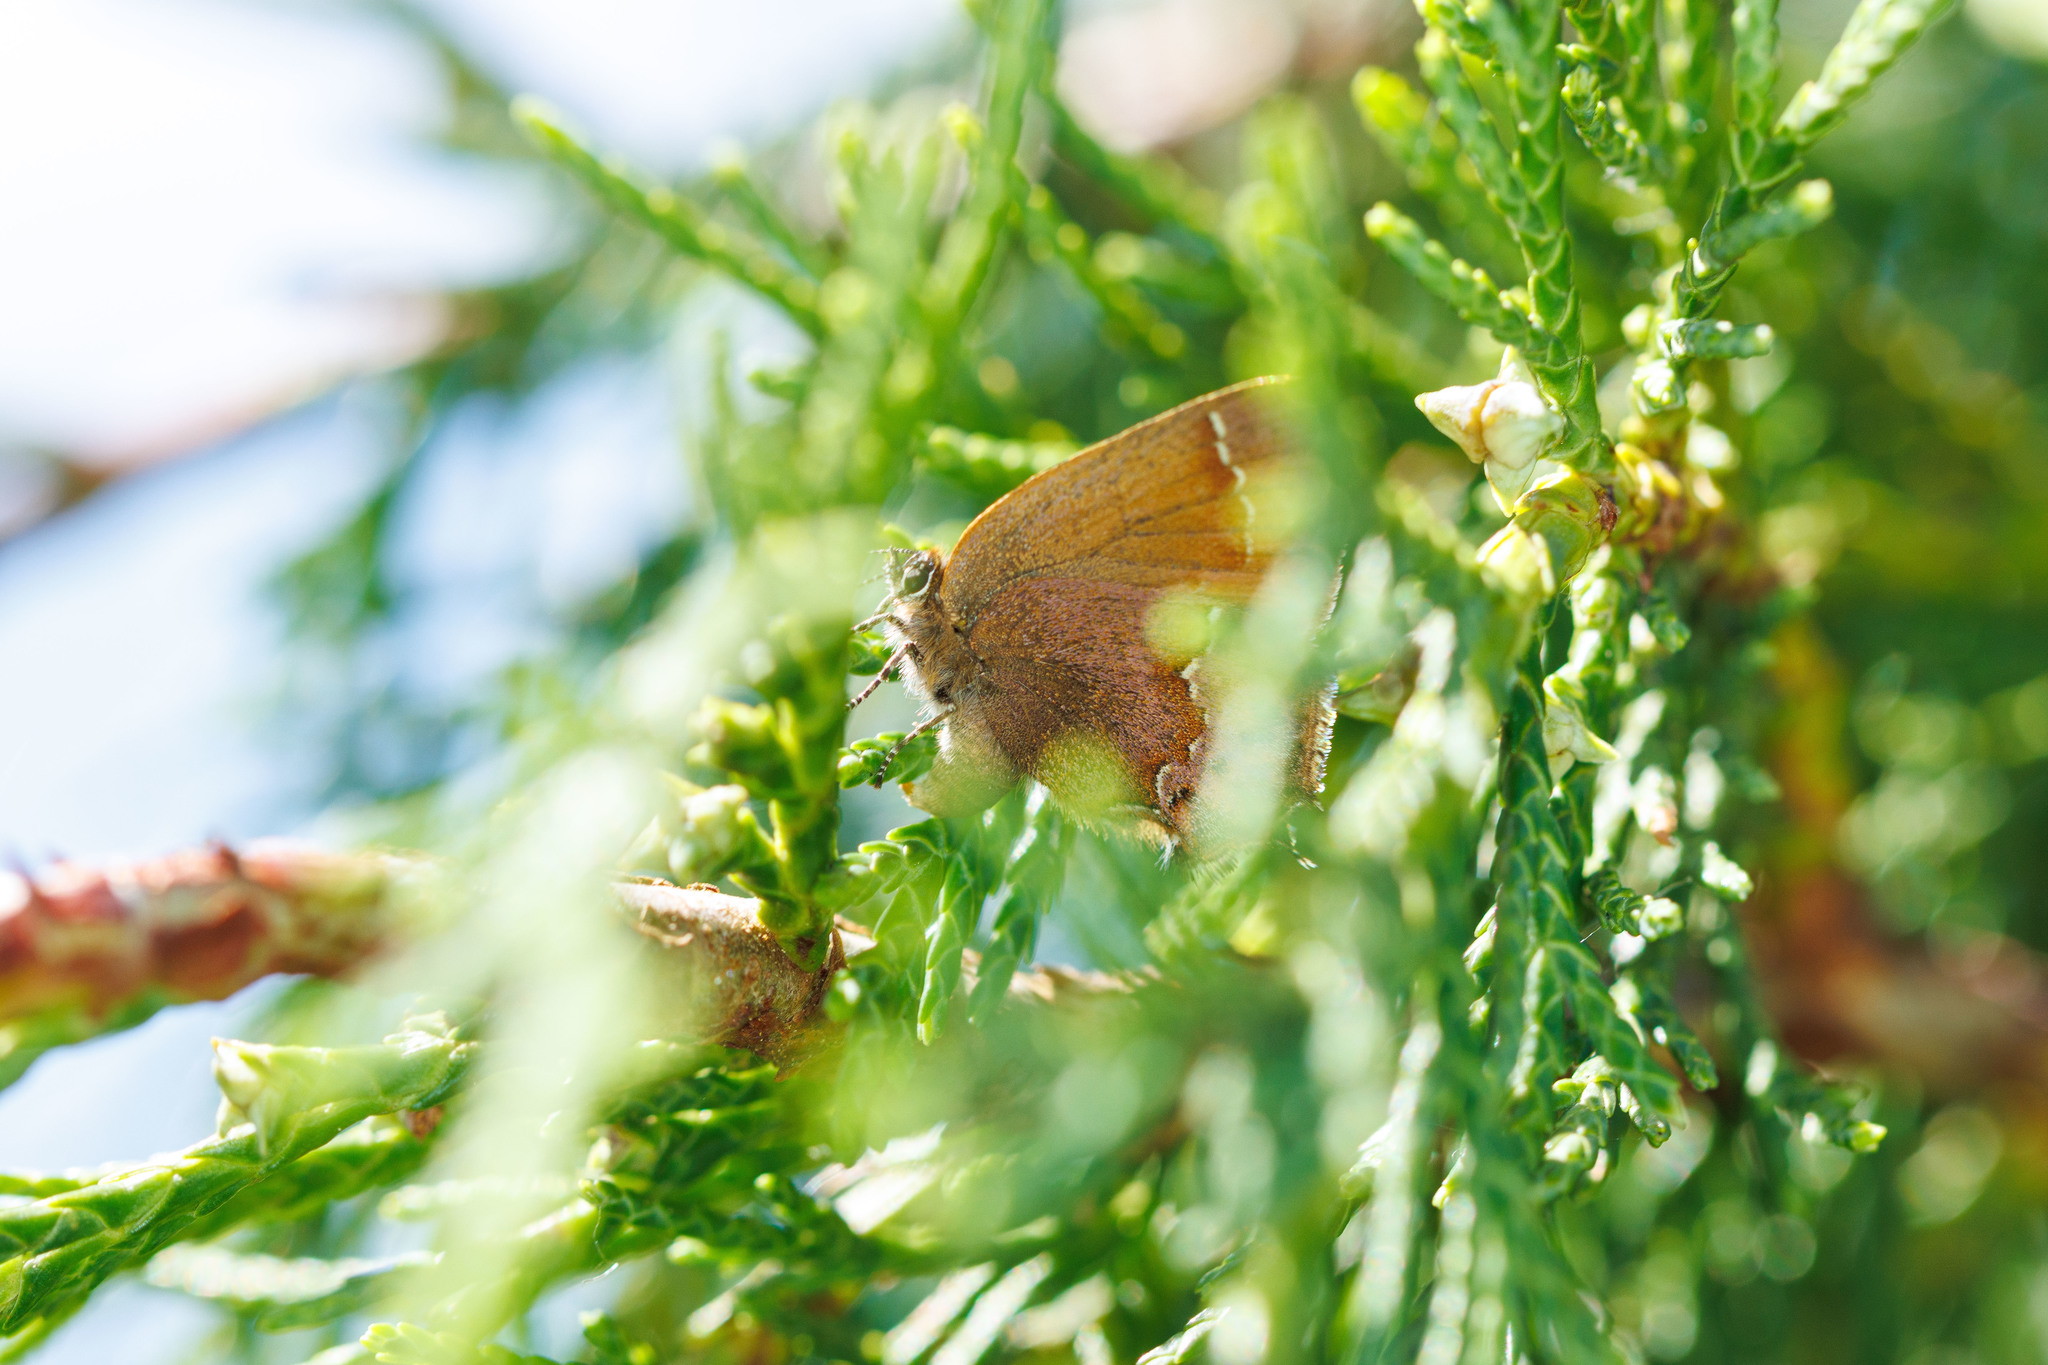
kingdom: Animalia
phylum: Arthropoda
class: Insecta
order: Lepidoptera
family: Lycaenidae
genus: Mitoura
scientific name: Mitoura gryneus
